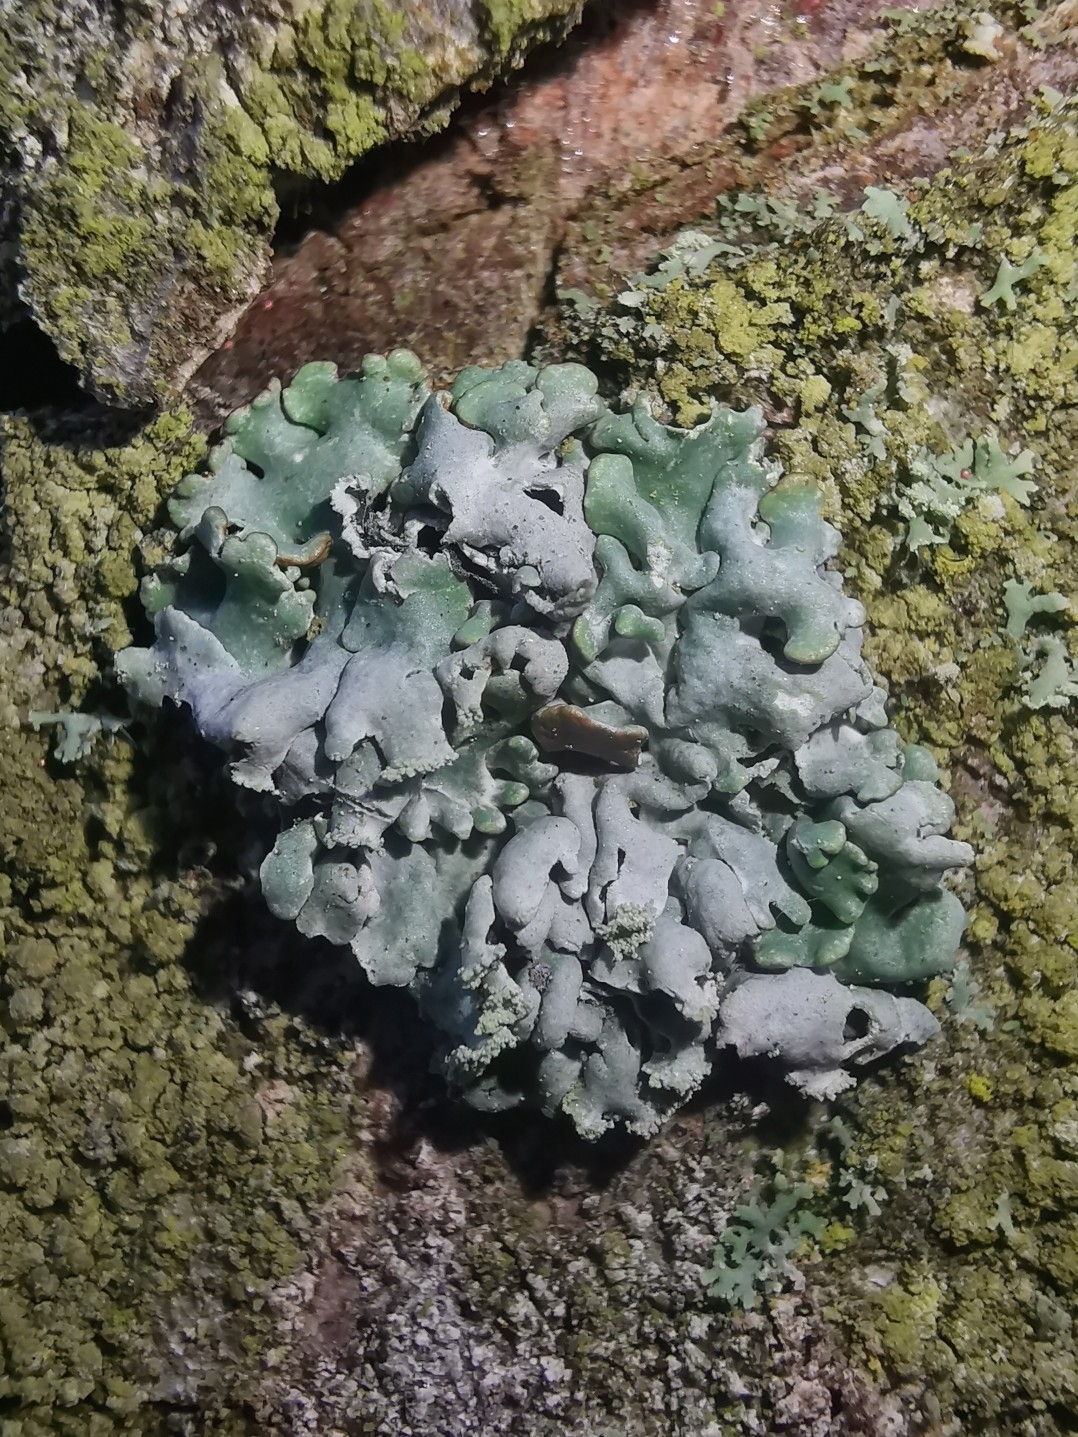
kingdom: Fungi
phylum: Ascomycota
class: Lecanoromycetes
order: Lecanorales
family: Parmeliaceae
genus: Hypogymnia
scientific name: Hypogymnia physodes
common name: Dark crottle
